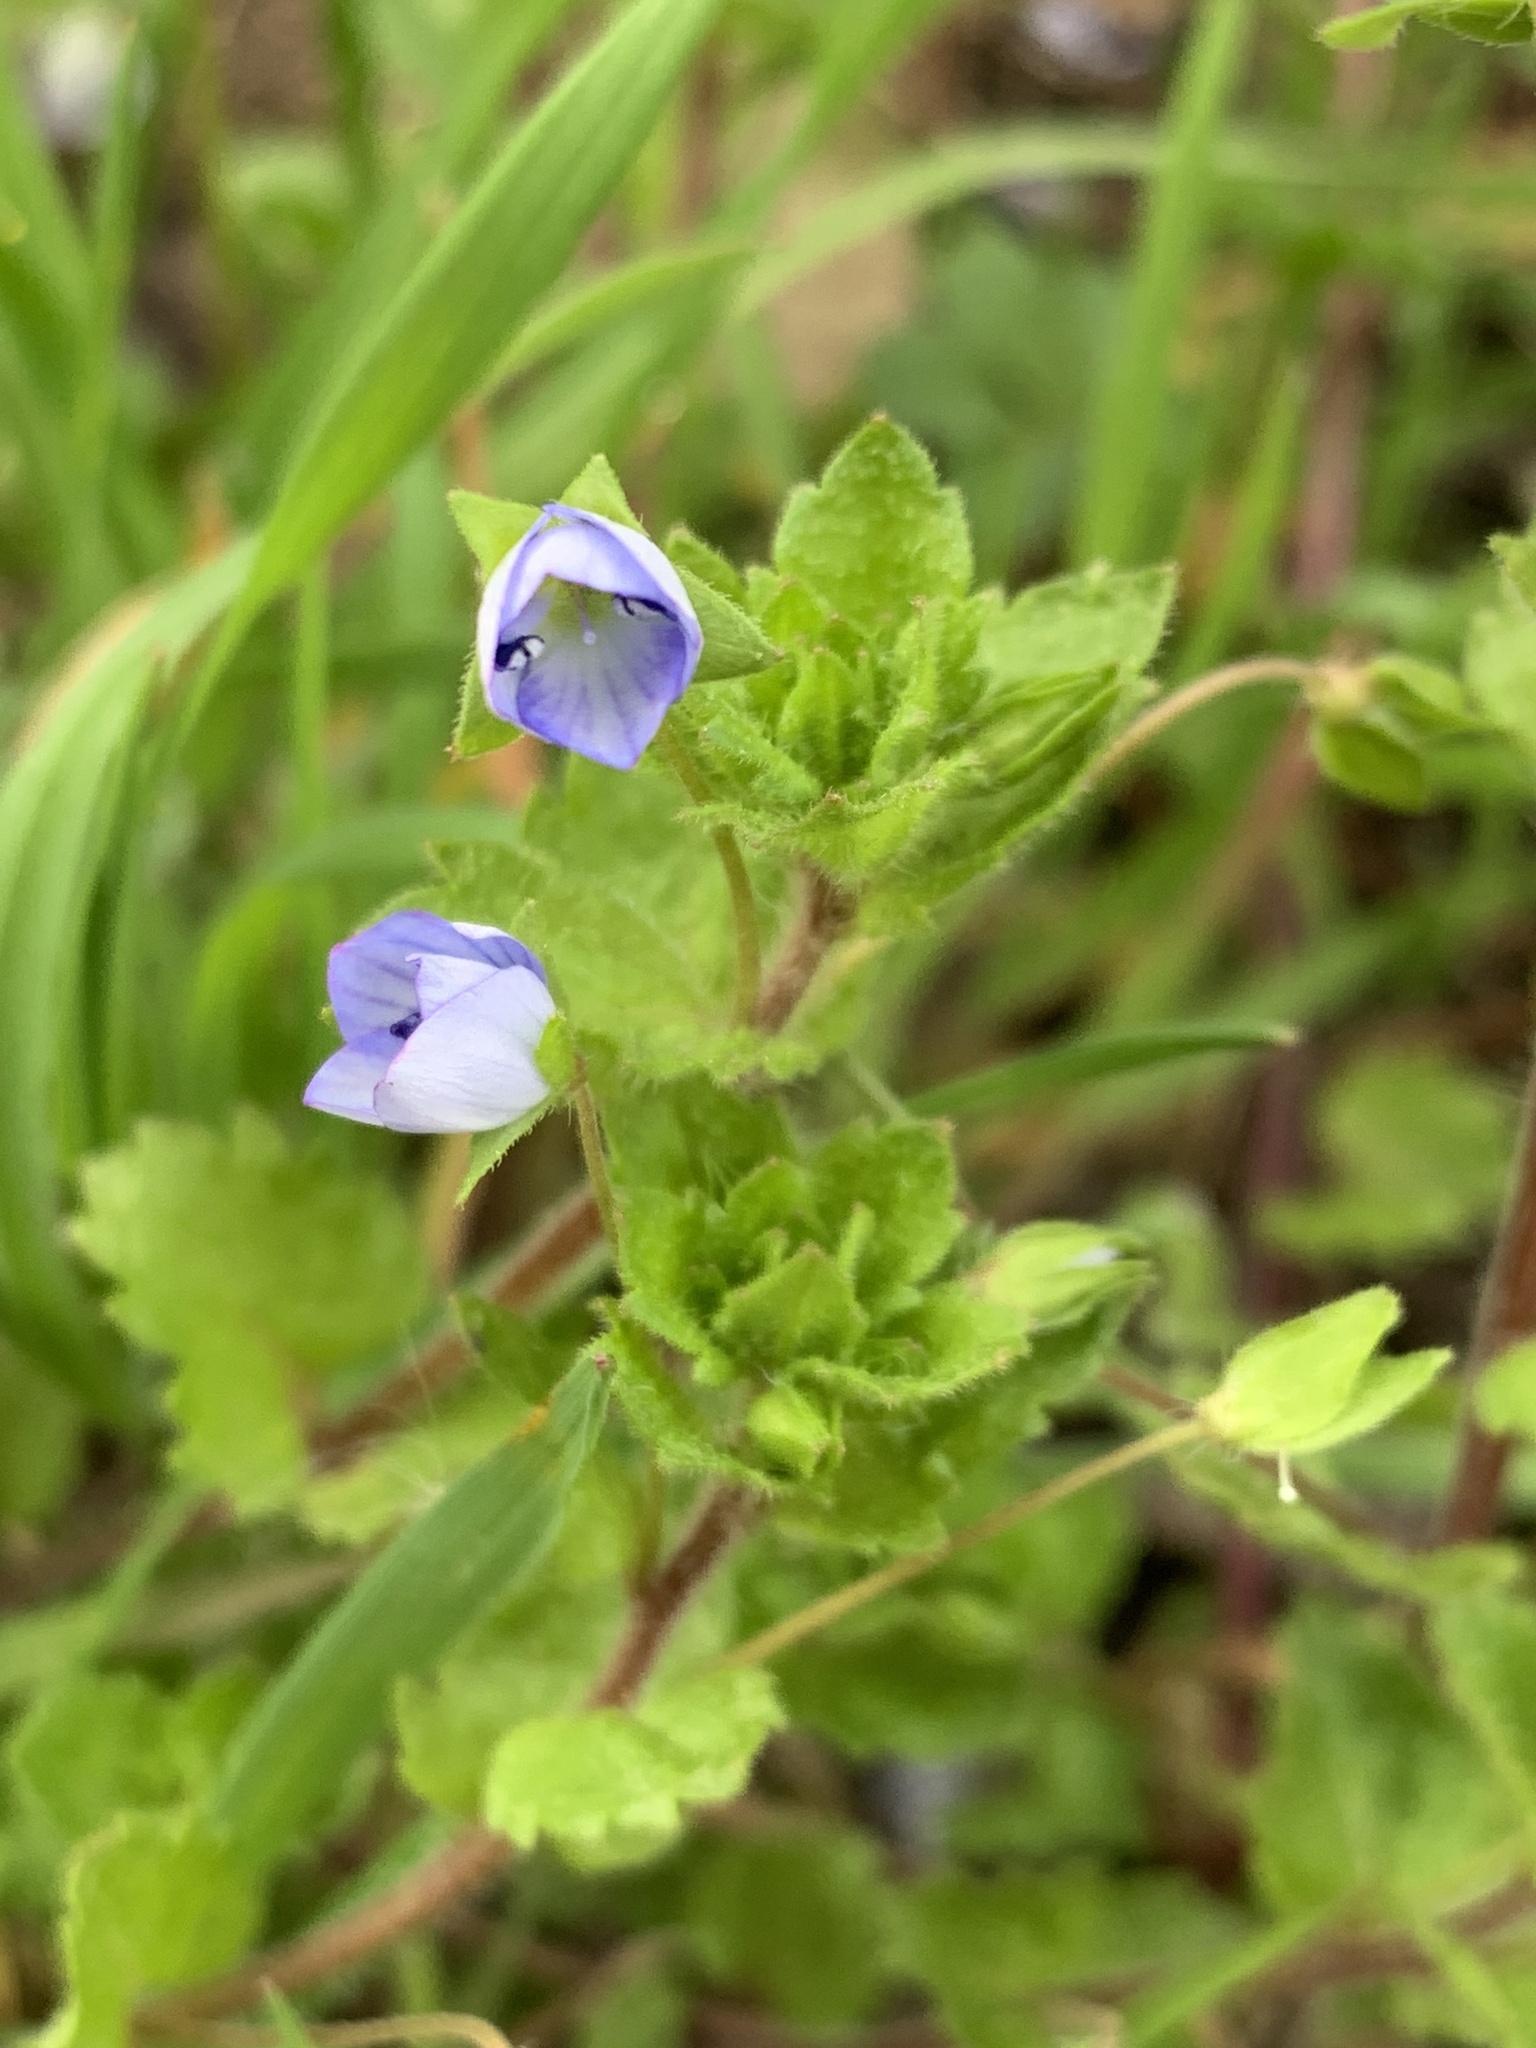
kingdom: Plantae
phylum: Tracheophyta
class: Magnoliopsida
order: Lamiales
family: Plantaginaceae
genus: Veronica
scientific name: Veronica persica
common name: Common field-speedwell
